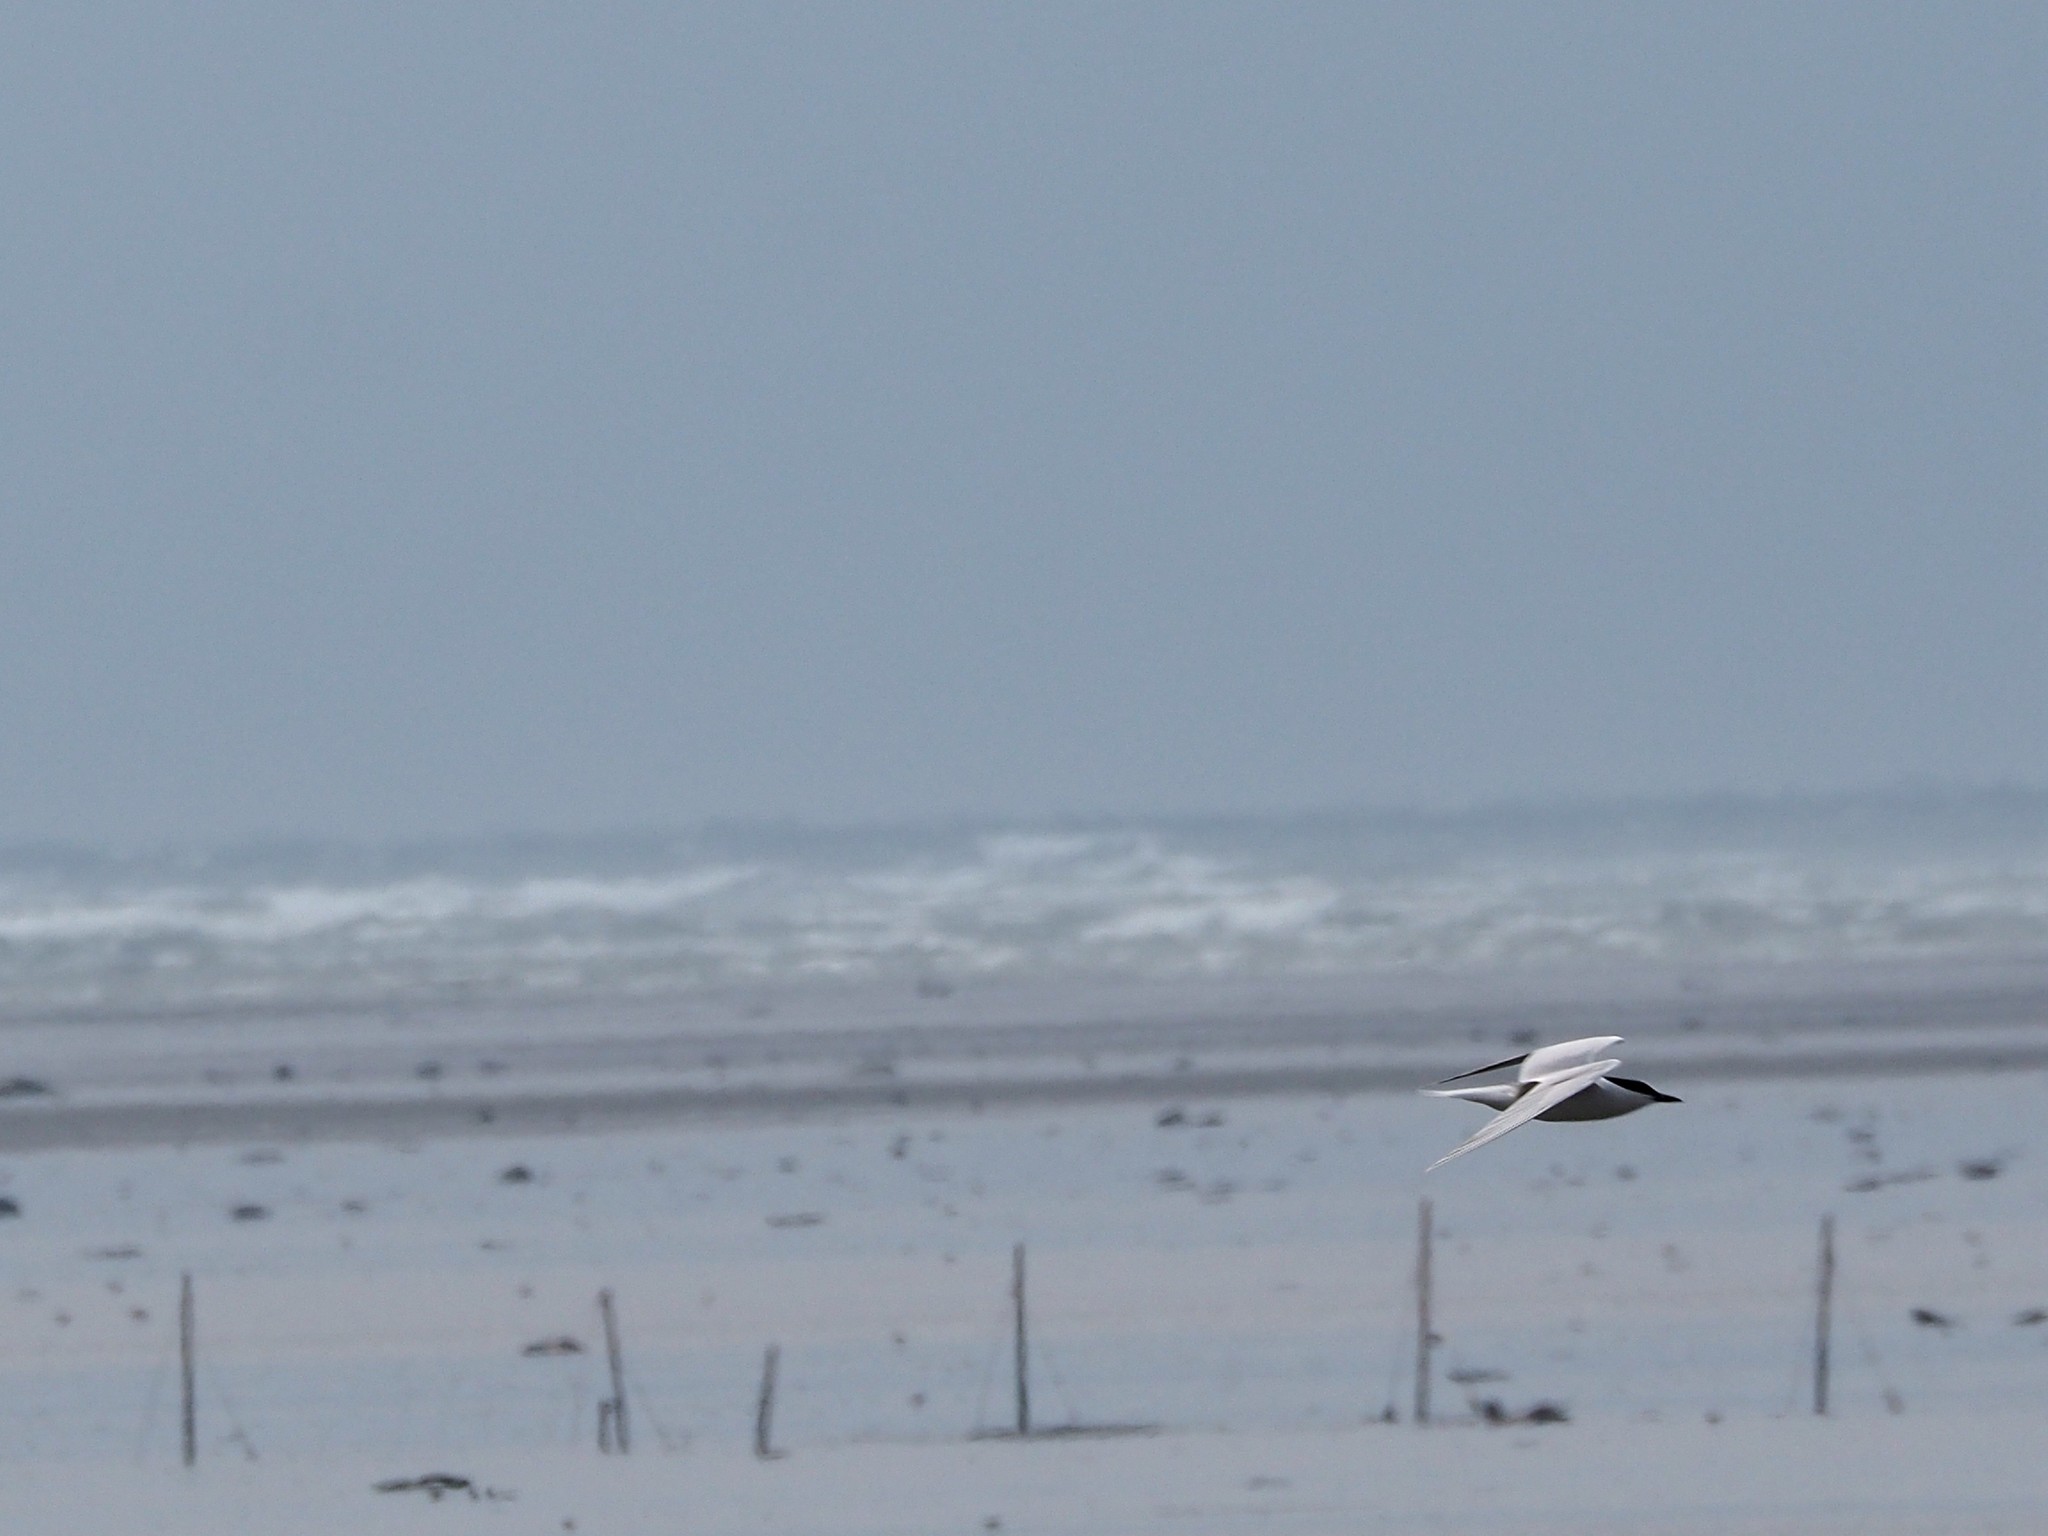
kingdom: Animalia
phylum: Chordata
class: Aves
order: Charadriiformes
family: Laridae
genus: Gelochelidon
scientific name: Gelochelidon nilotica
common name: Gull-billed tern
